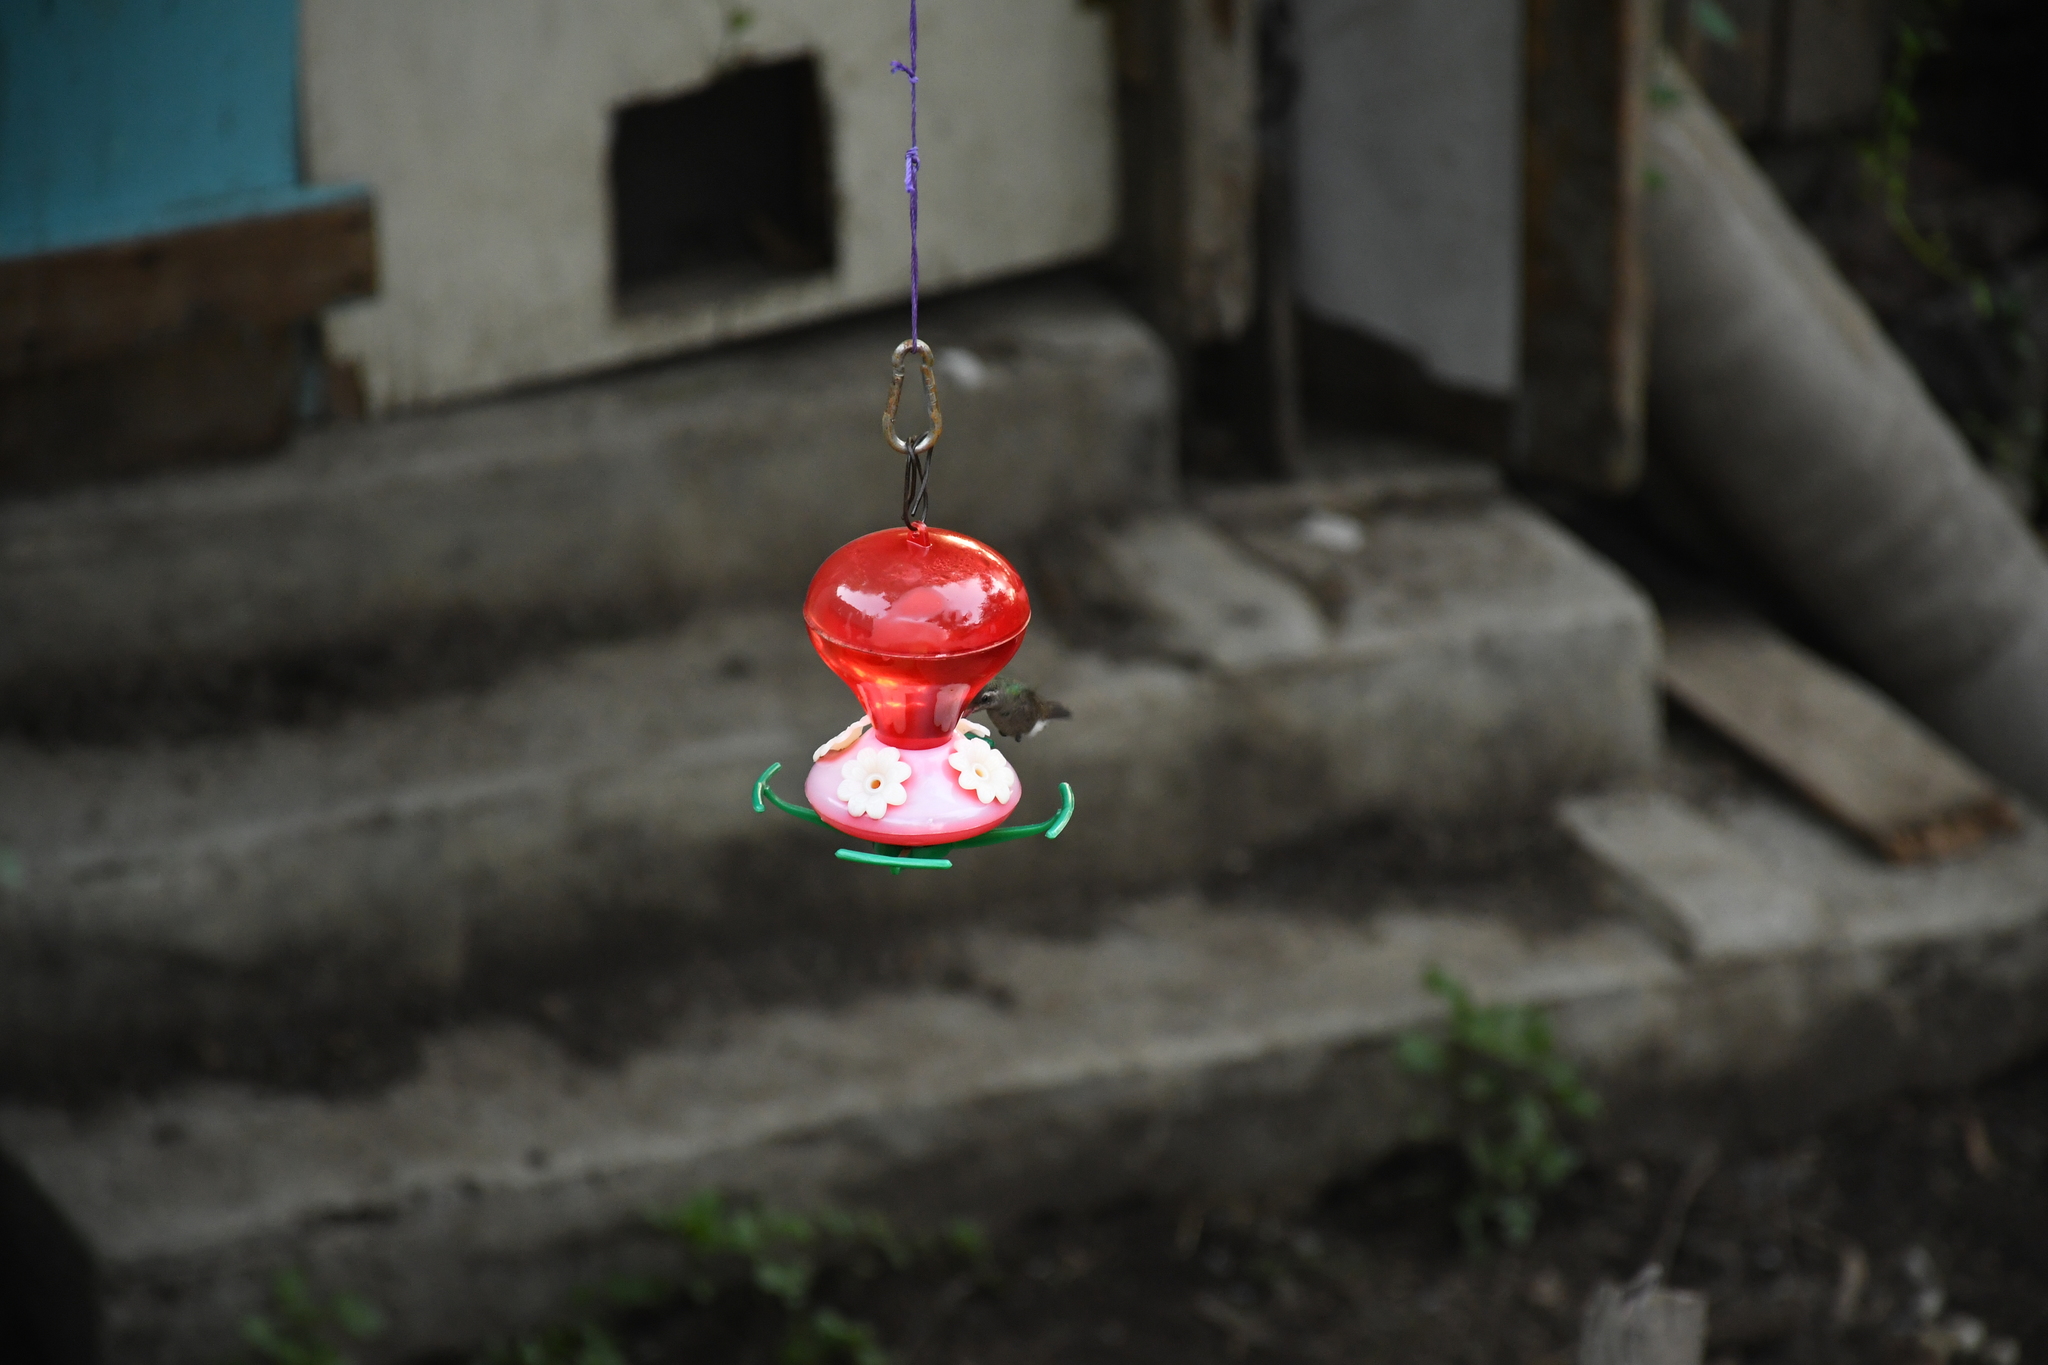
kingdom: Animalia
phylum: Chordata
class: Aves
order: Apodiformes
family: Trochilidae
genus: Cynanthus
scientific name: Cynanthus latirostris
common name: Broad-billed hummingbird
